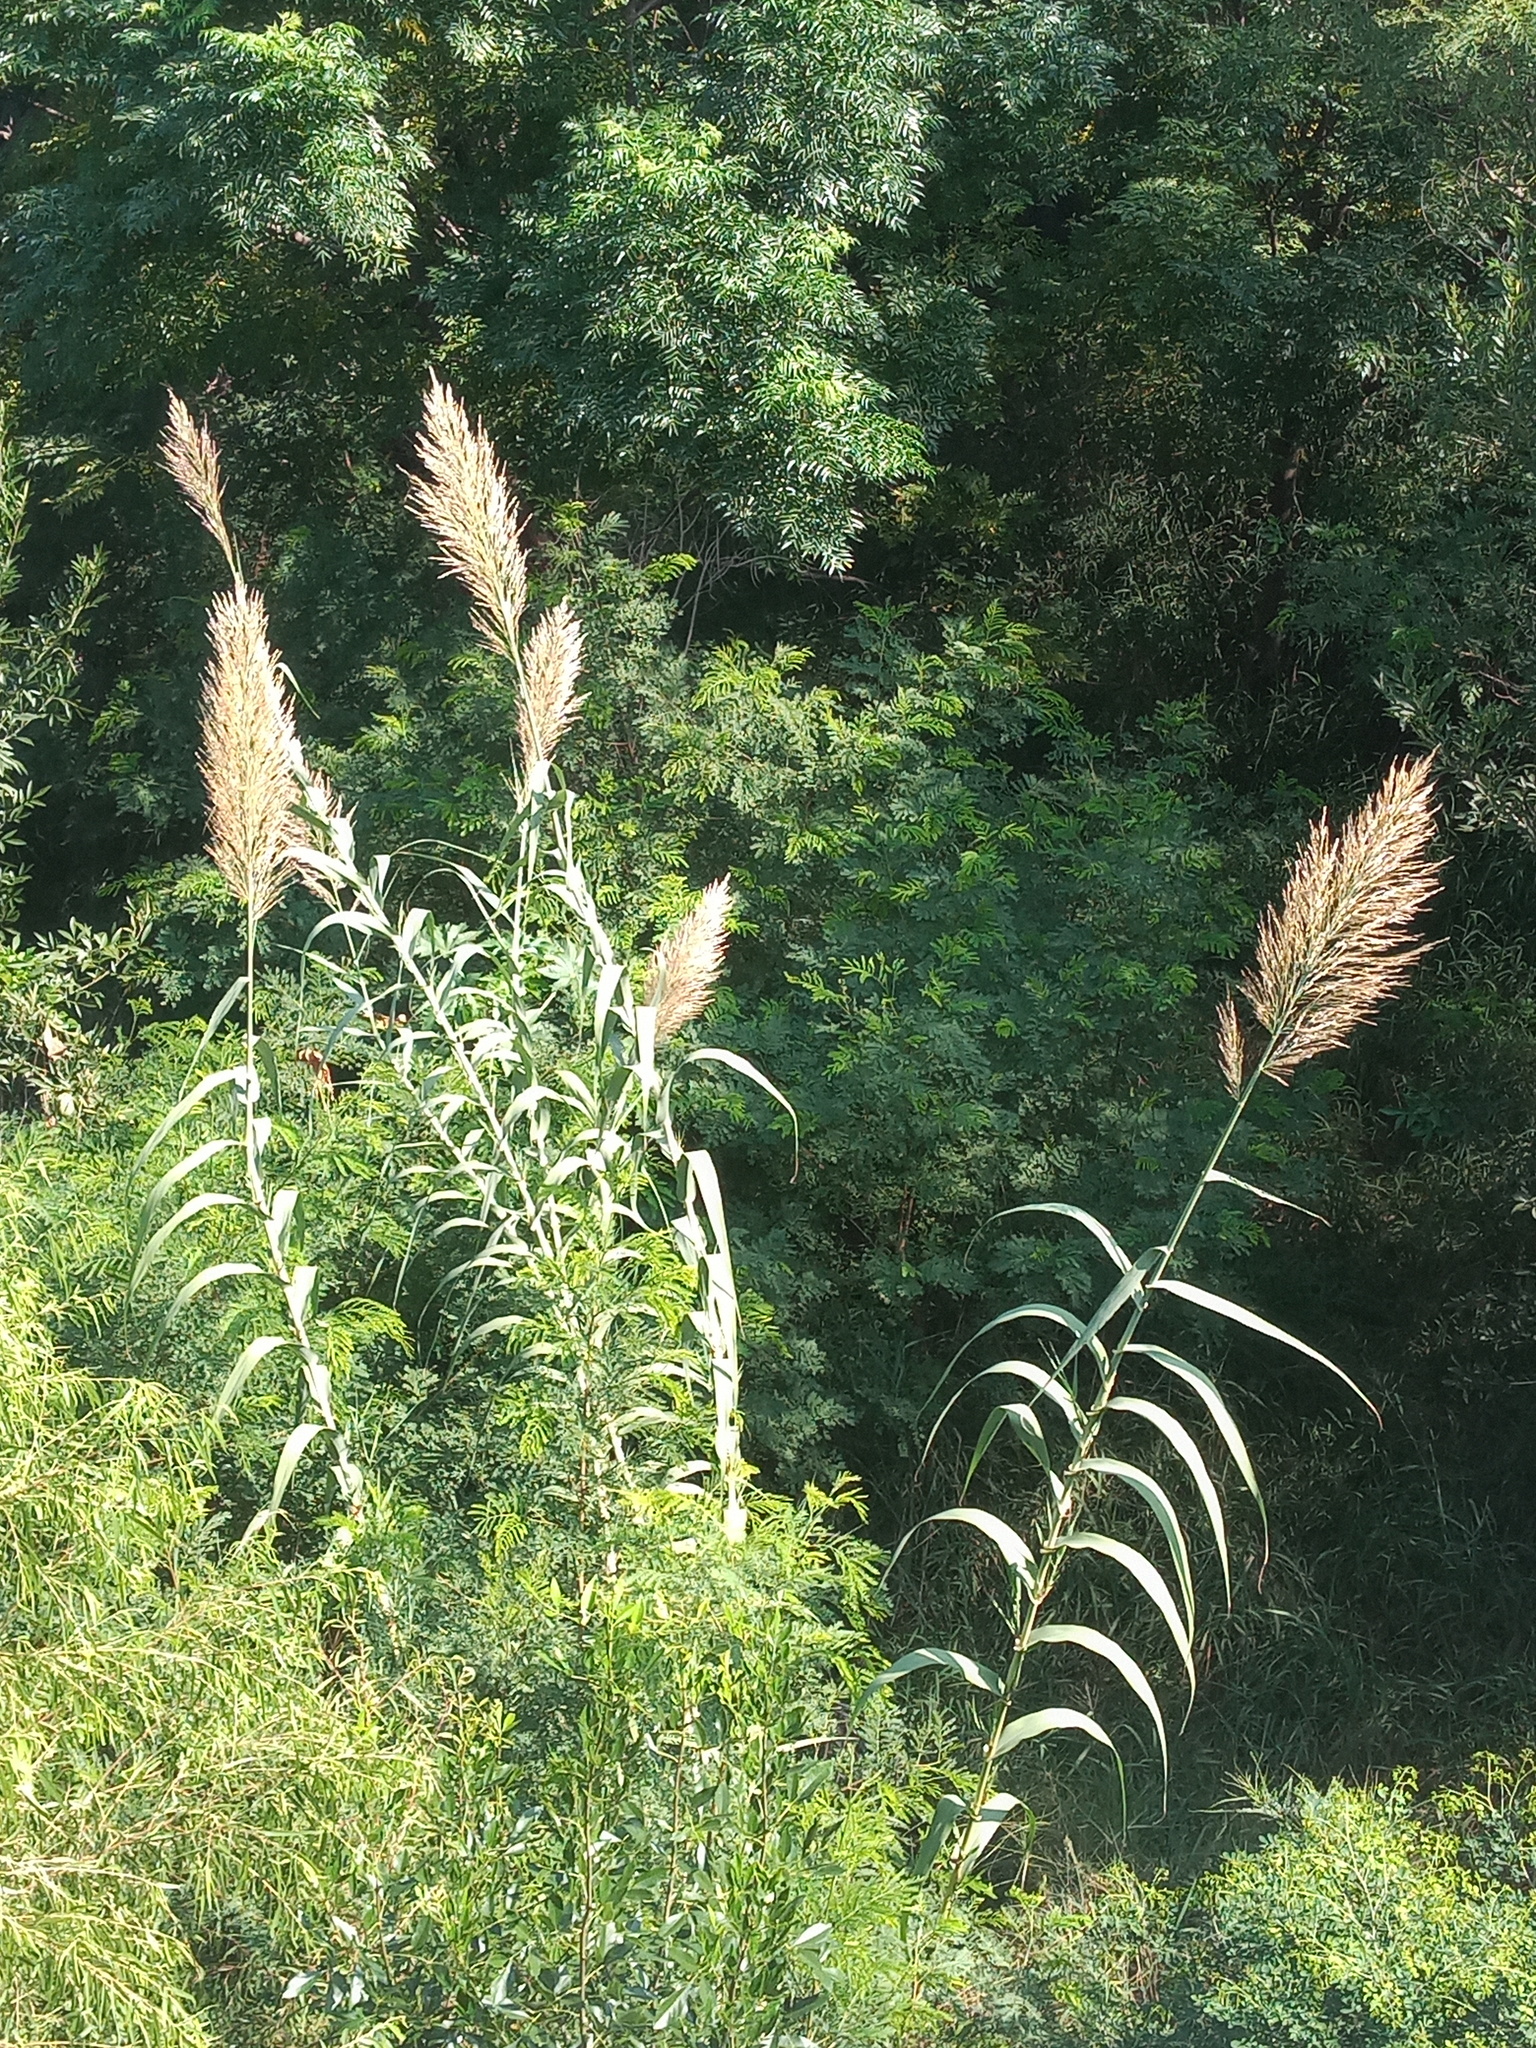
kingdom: Plantae
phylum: Tracheophyta
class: Liliopsida
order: Poales
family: Poaceae
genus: Arundo
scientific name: Arundo donax
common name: Giant reed
